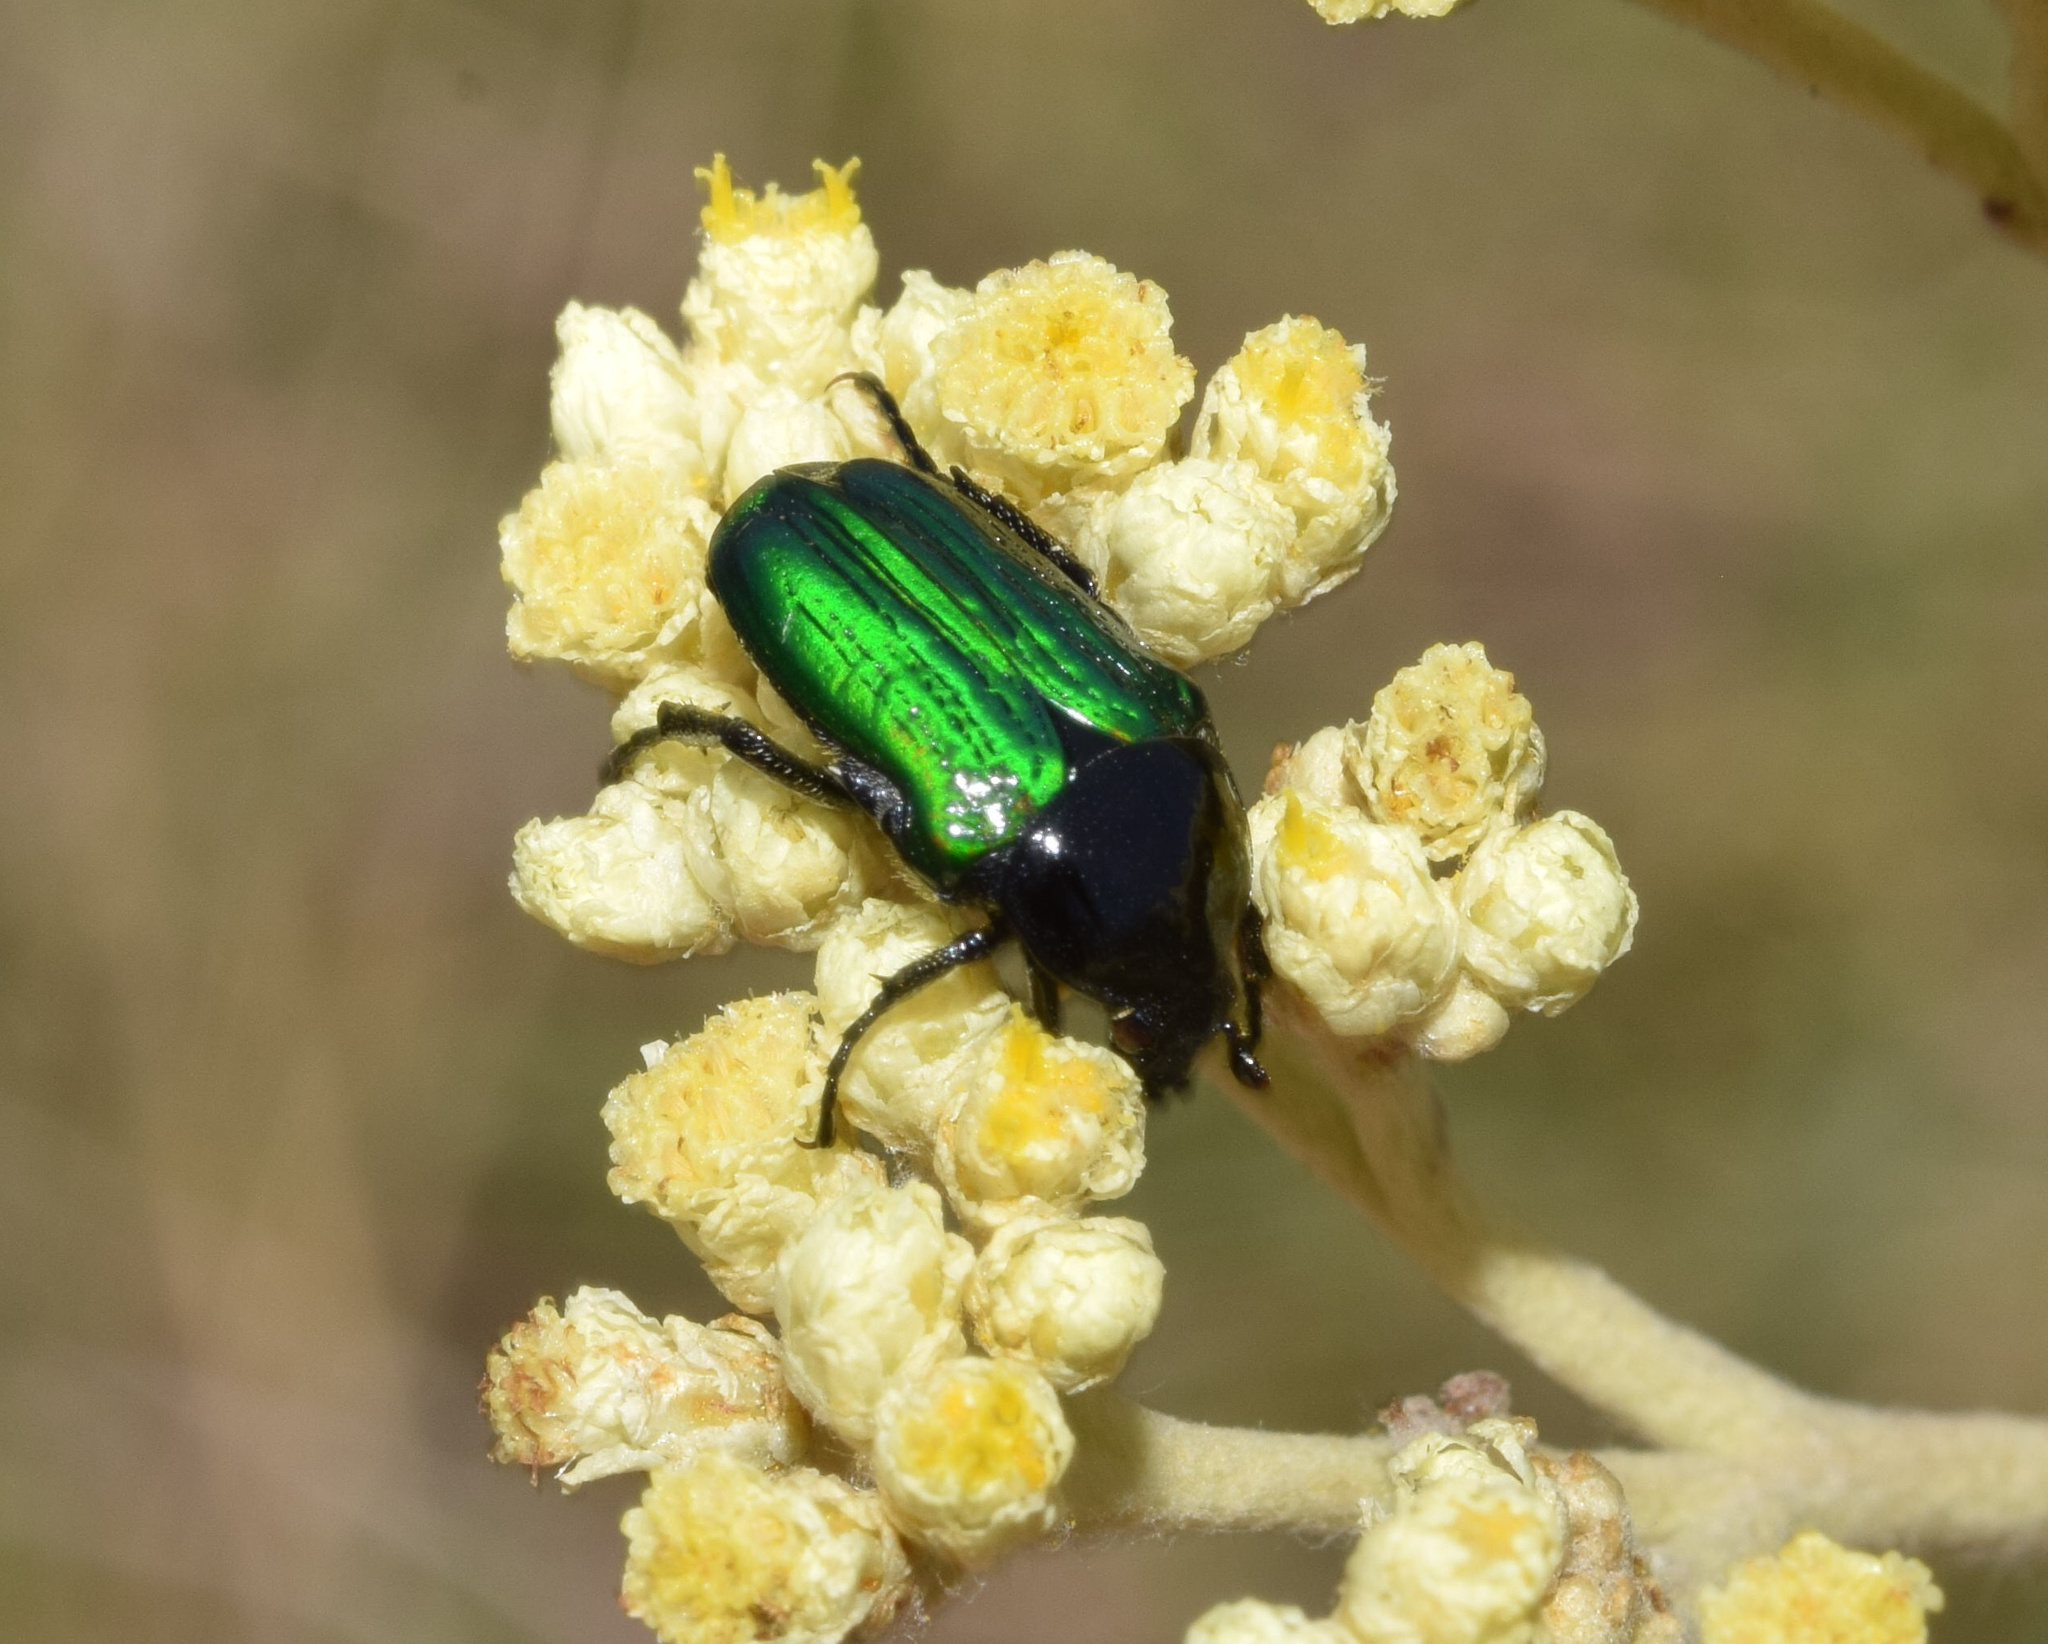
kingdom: Animalia
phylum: Arthropoda
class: Insecta
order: Coleoptera
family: Scarabaeidae
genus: Leucocelis
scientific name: Leucocelis haemorrhoidalis
